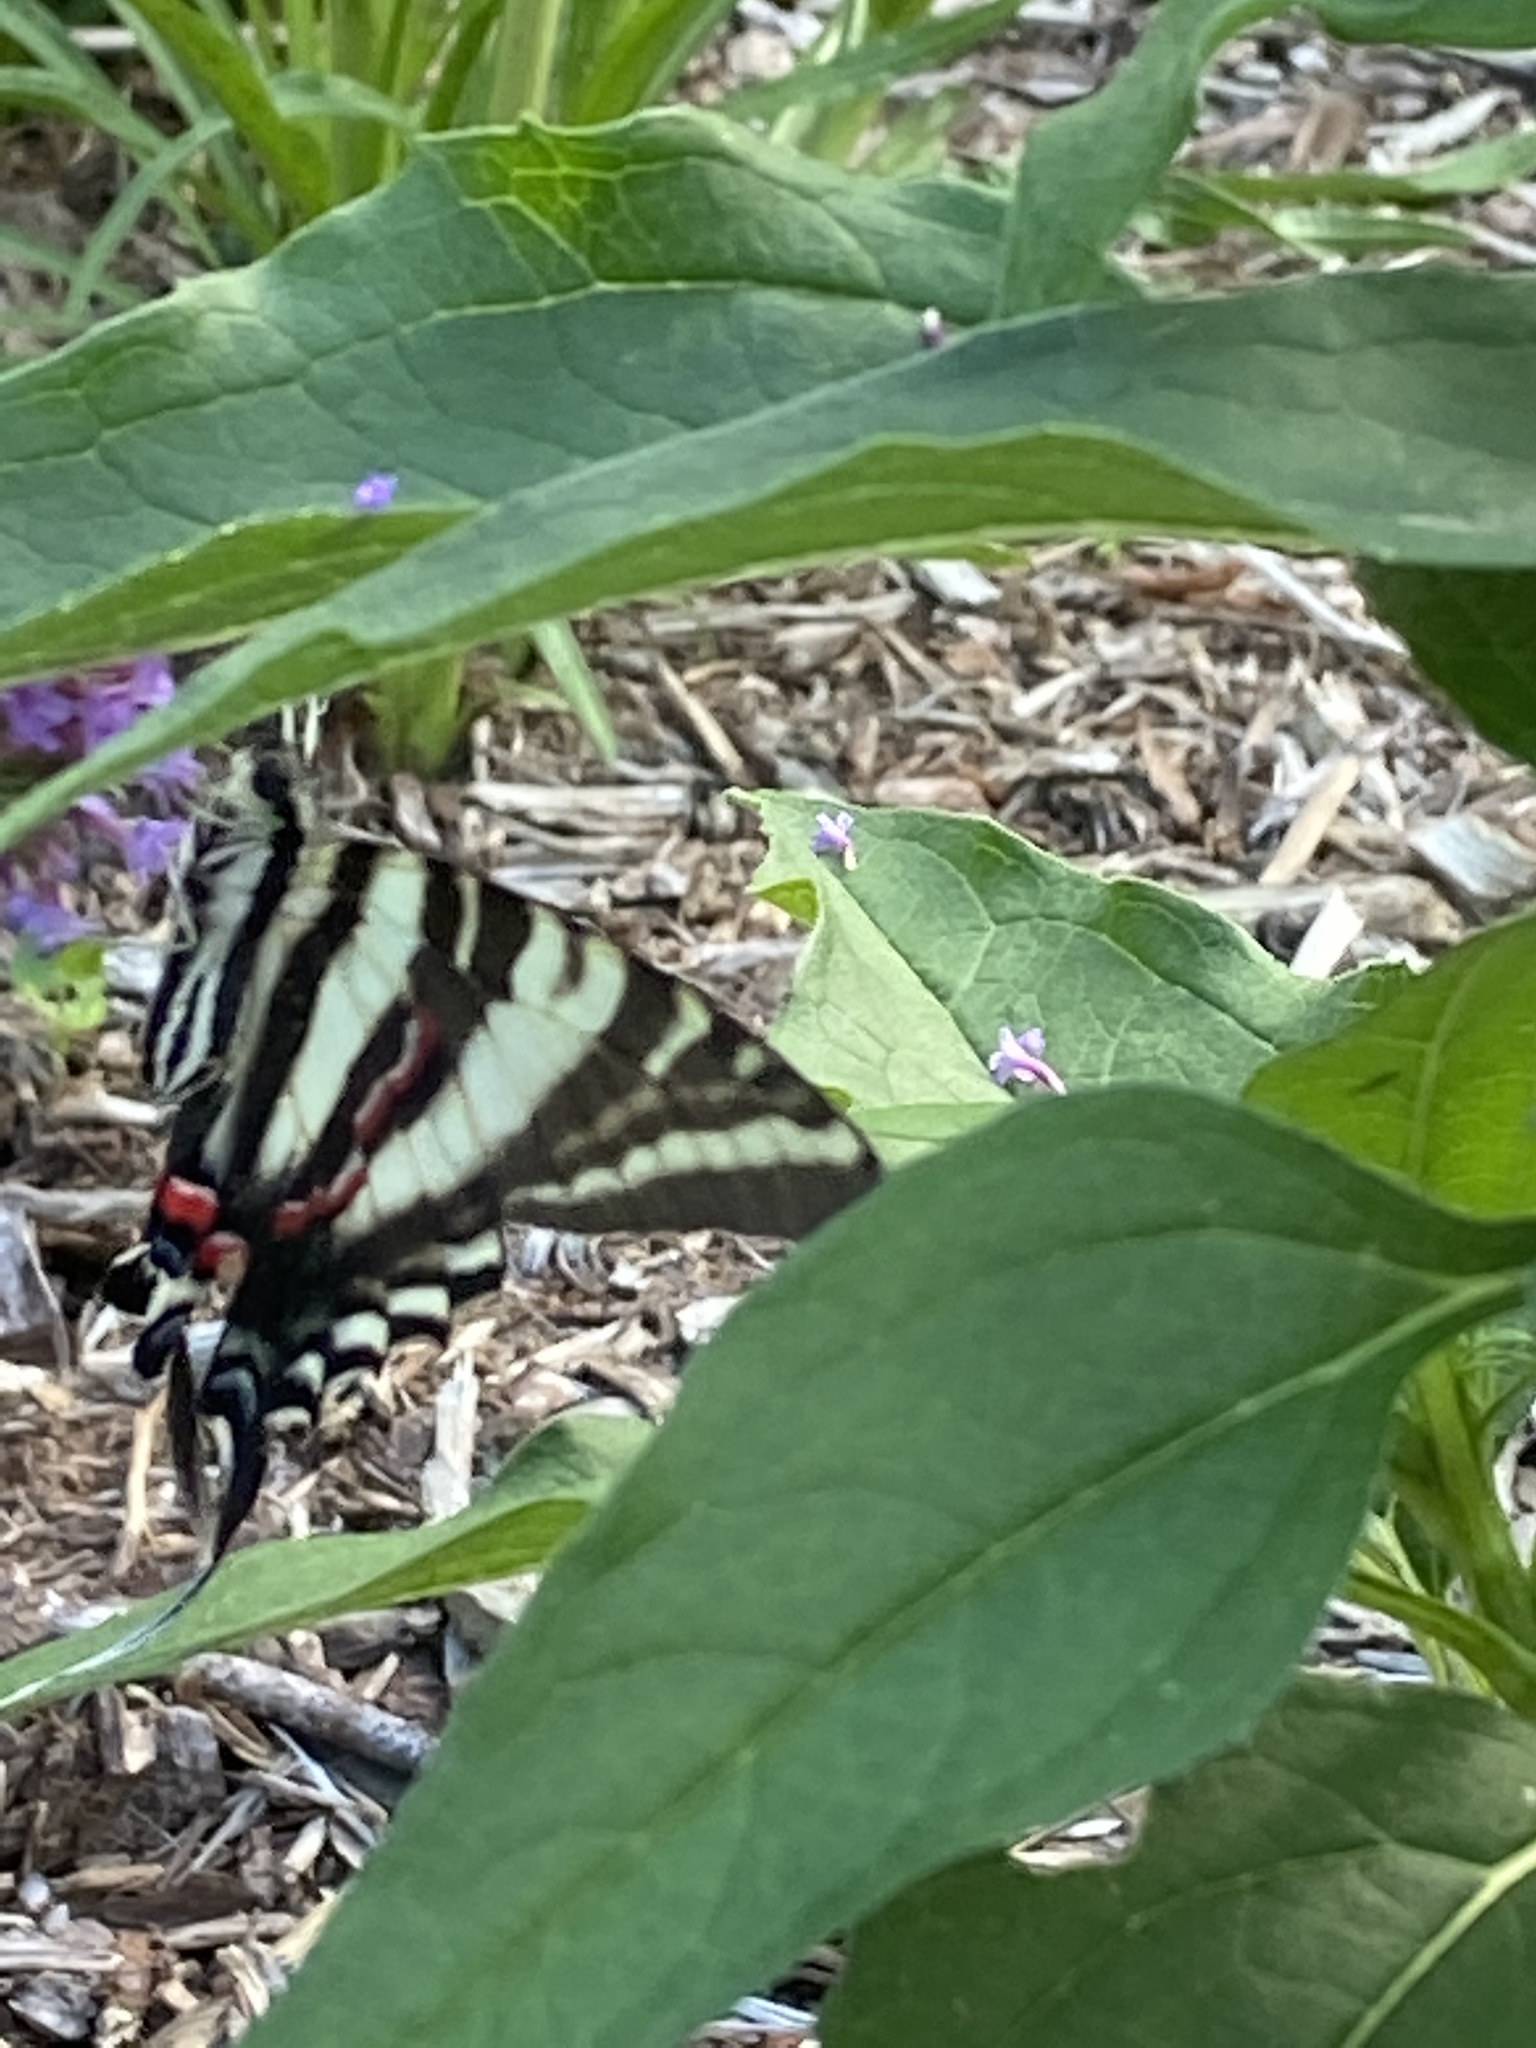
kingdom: Animalia
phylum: Arthropoda
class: Insecta
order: Lepidoptera
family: Papilionidae
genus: Protographium
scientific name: Protographium marcellus
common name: Zebra swallowtail
